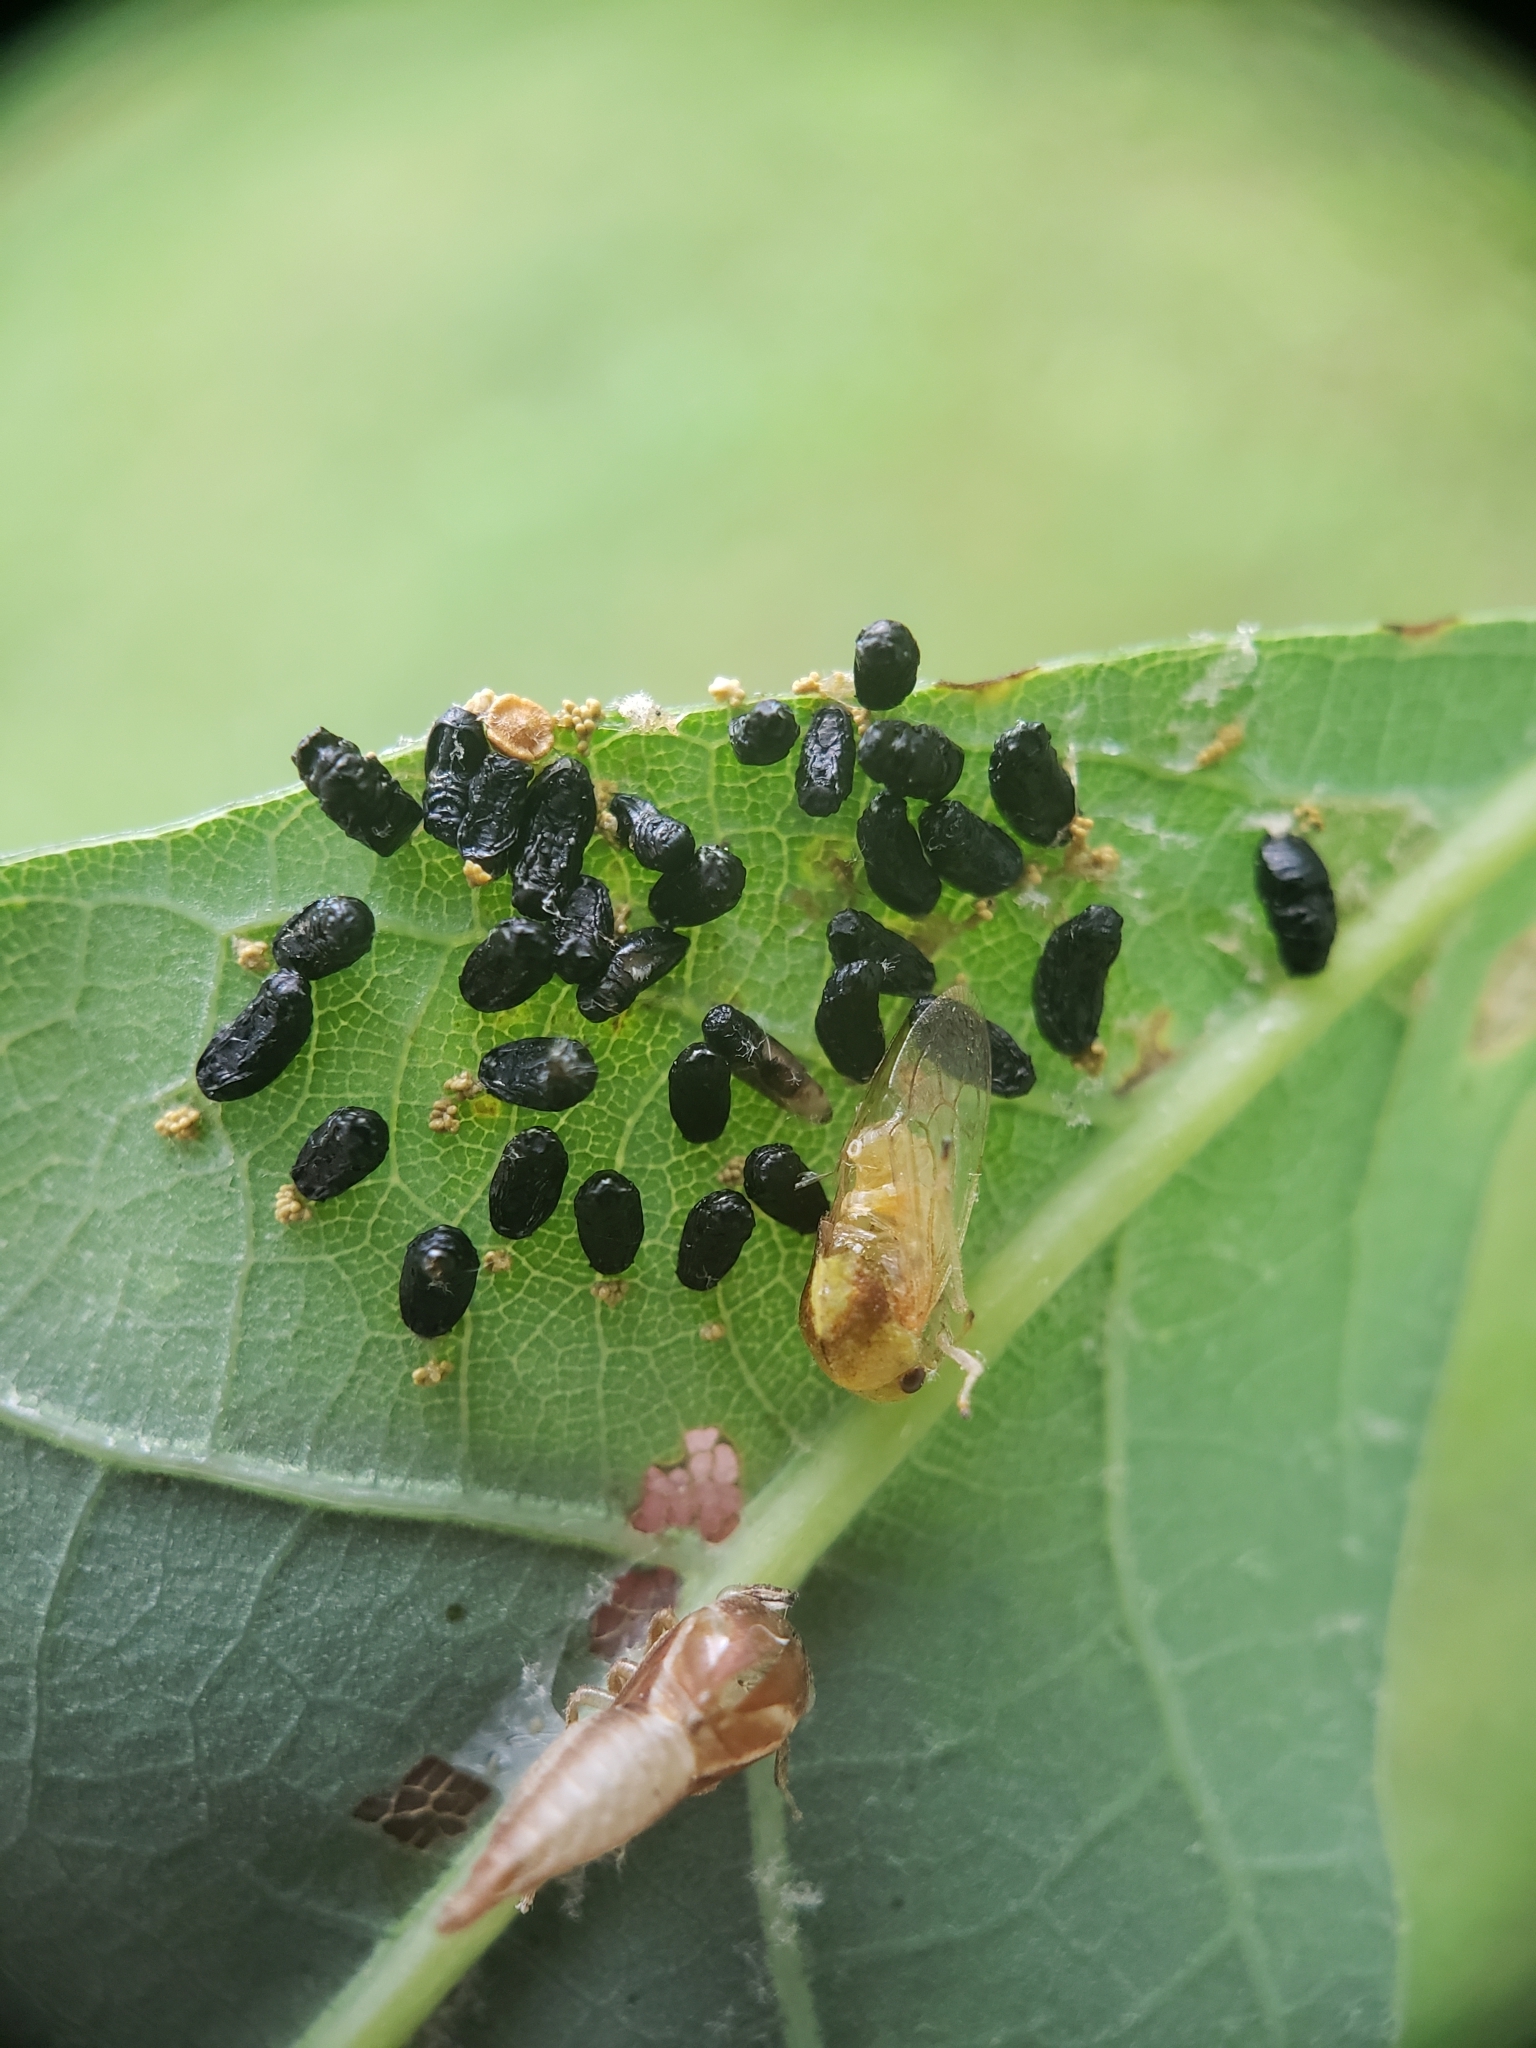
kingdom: Animalia
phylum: Arthropoda
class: Insecta
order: Hymenoptera
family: Eulophidae
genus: Eulophus
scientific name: Eulophus
